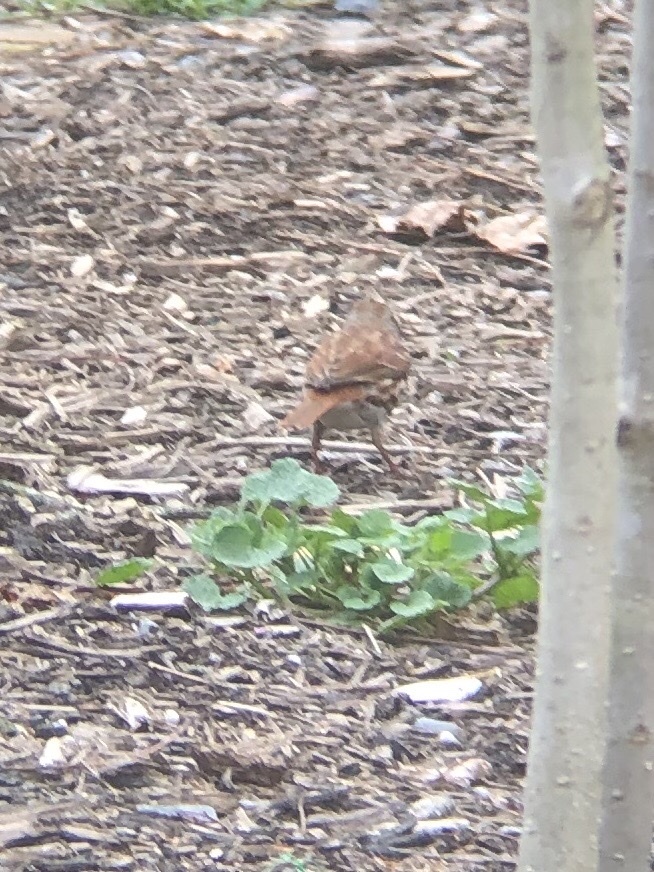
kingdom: Animalia
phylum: Chordata
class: Aves
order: Passeriformes
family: Passerellidae
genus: Passerella
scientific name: Passerella iliaca
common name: Fox sparrow
